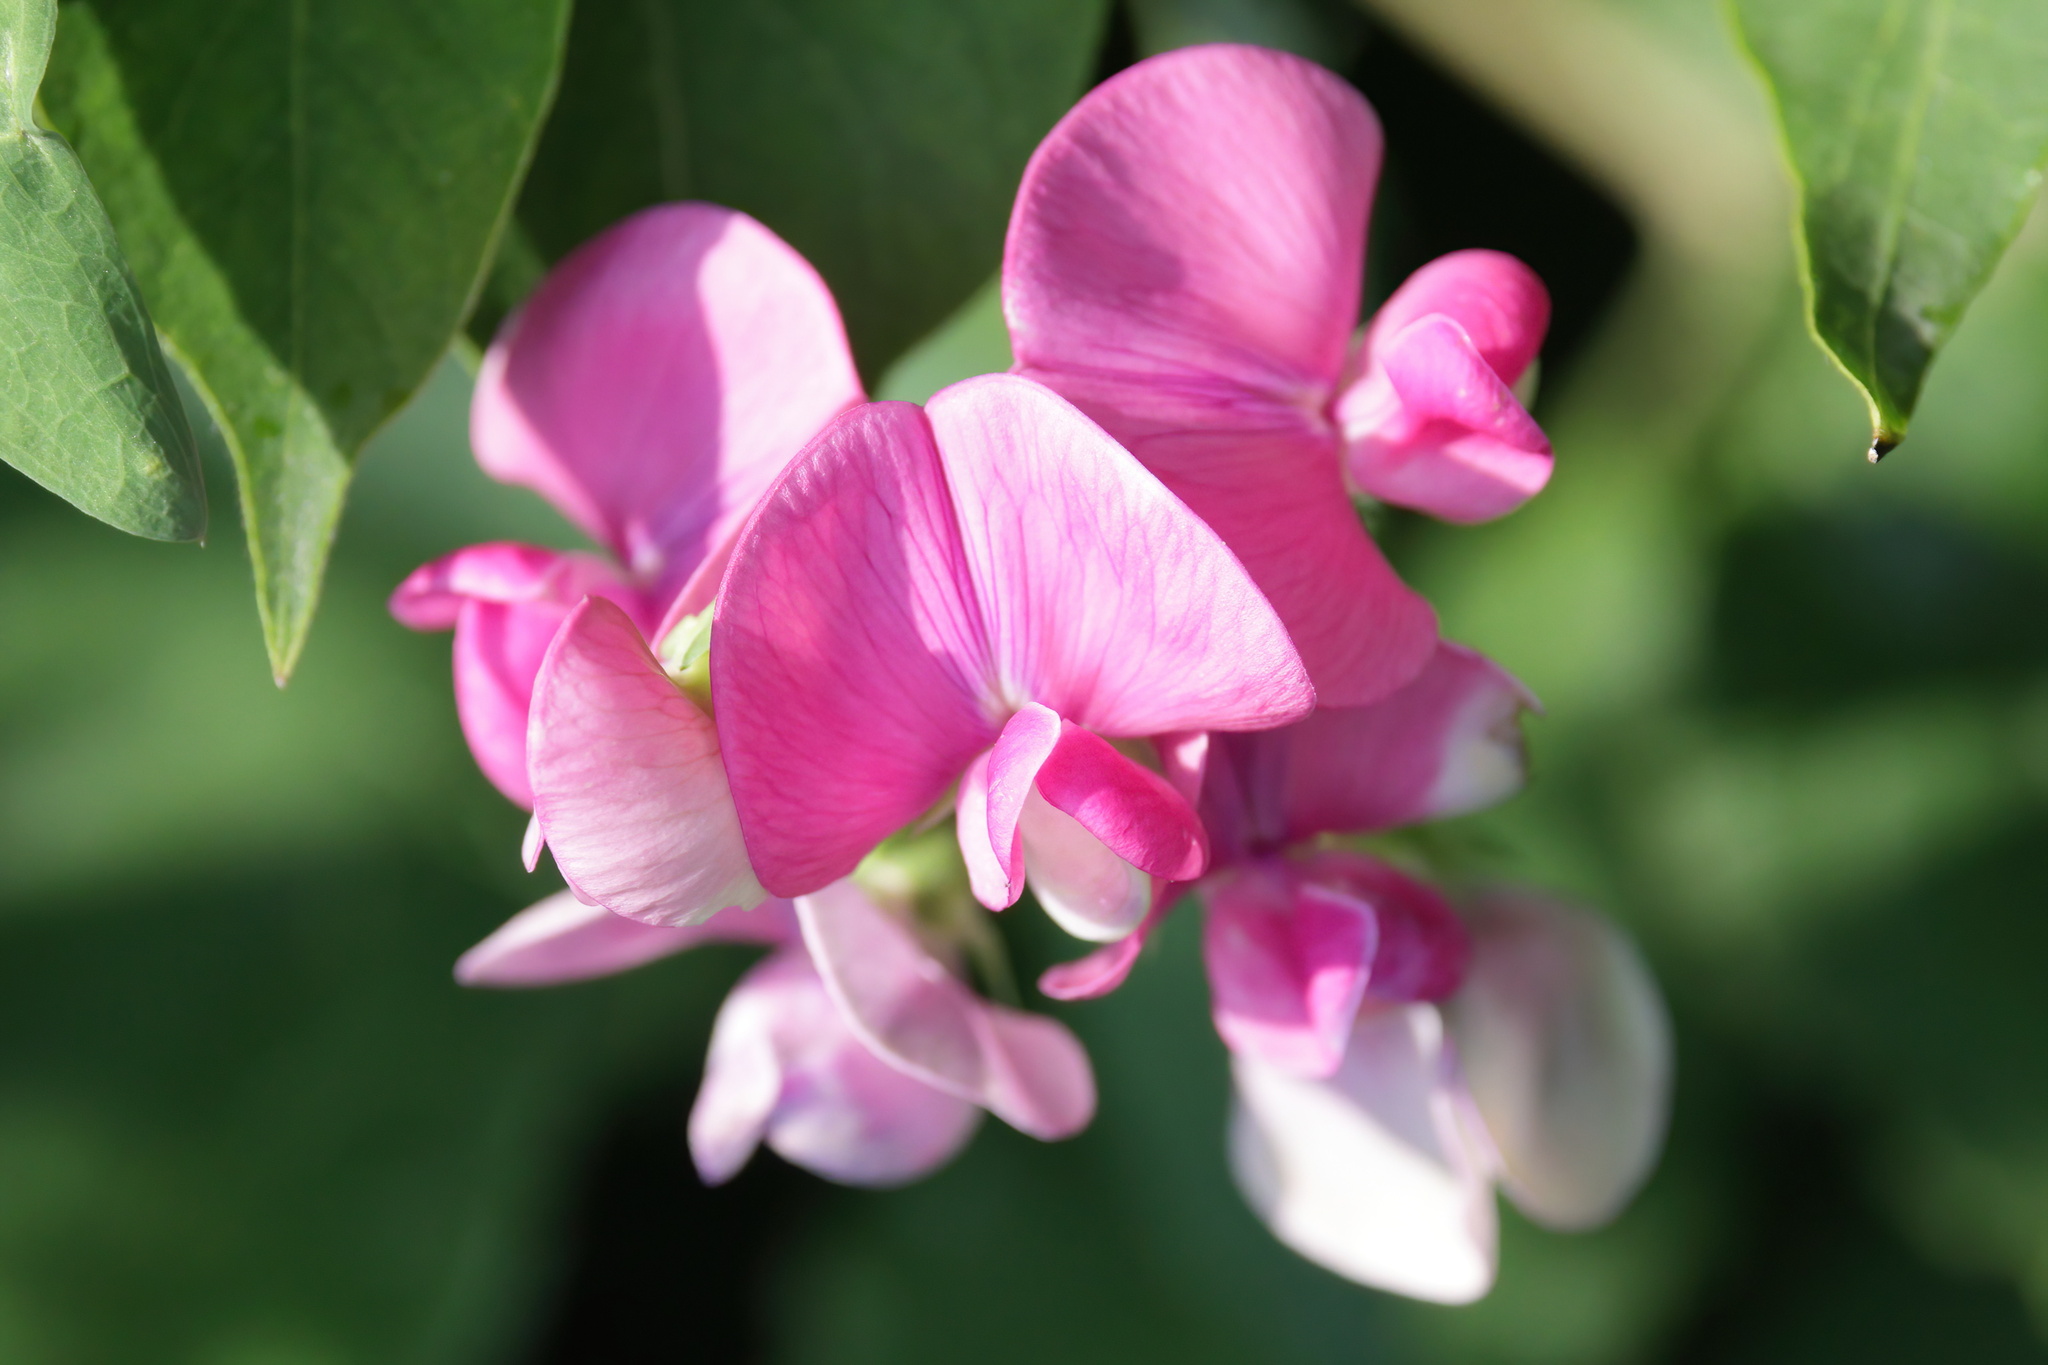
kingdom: Plantae
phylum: Tracheophyta
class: Magnoliopsida
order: Fabales
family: Fabaceae
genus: Lathyrus
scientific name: Lathyrus latifolius
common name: Perennial pea
